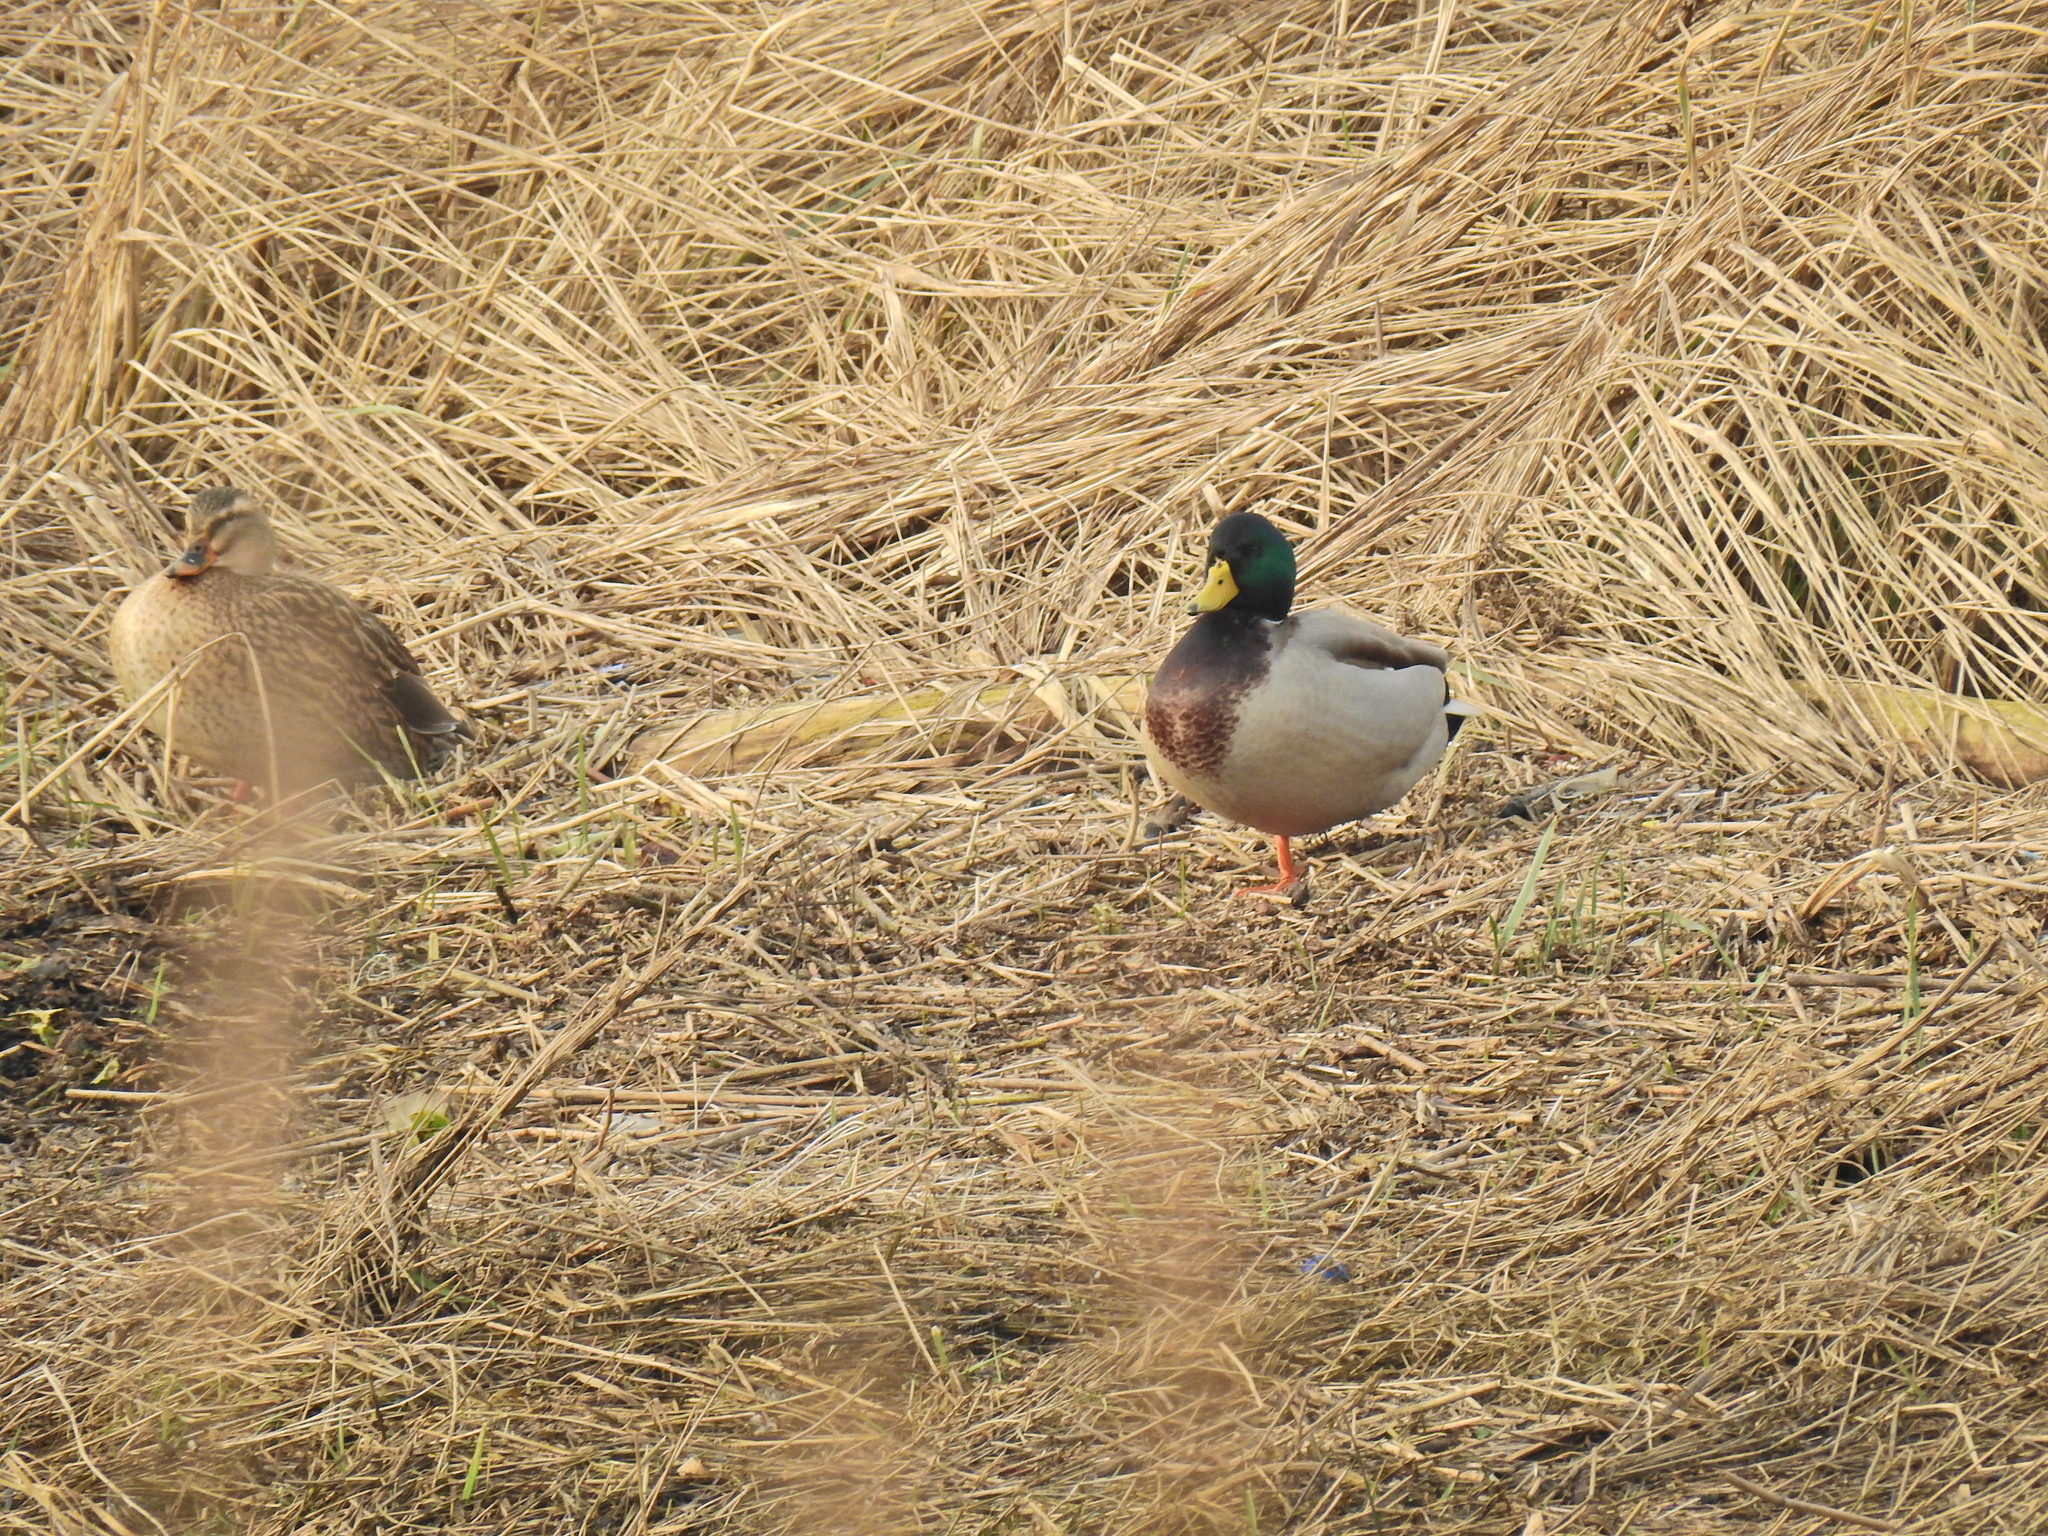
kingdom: Animalia
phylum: Chordata
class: Aves
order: Anseriformes
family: Anatidae
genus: Anas
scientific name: Anas platyrhynchos
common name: Mallard
